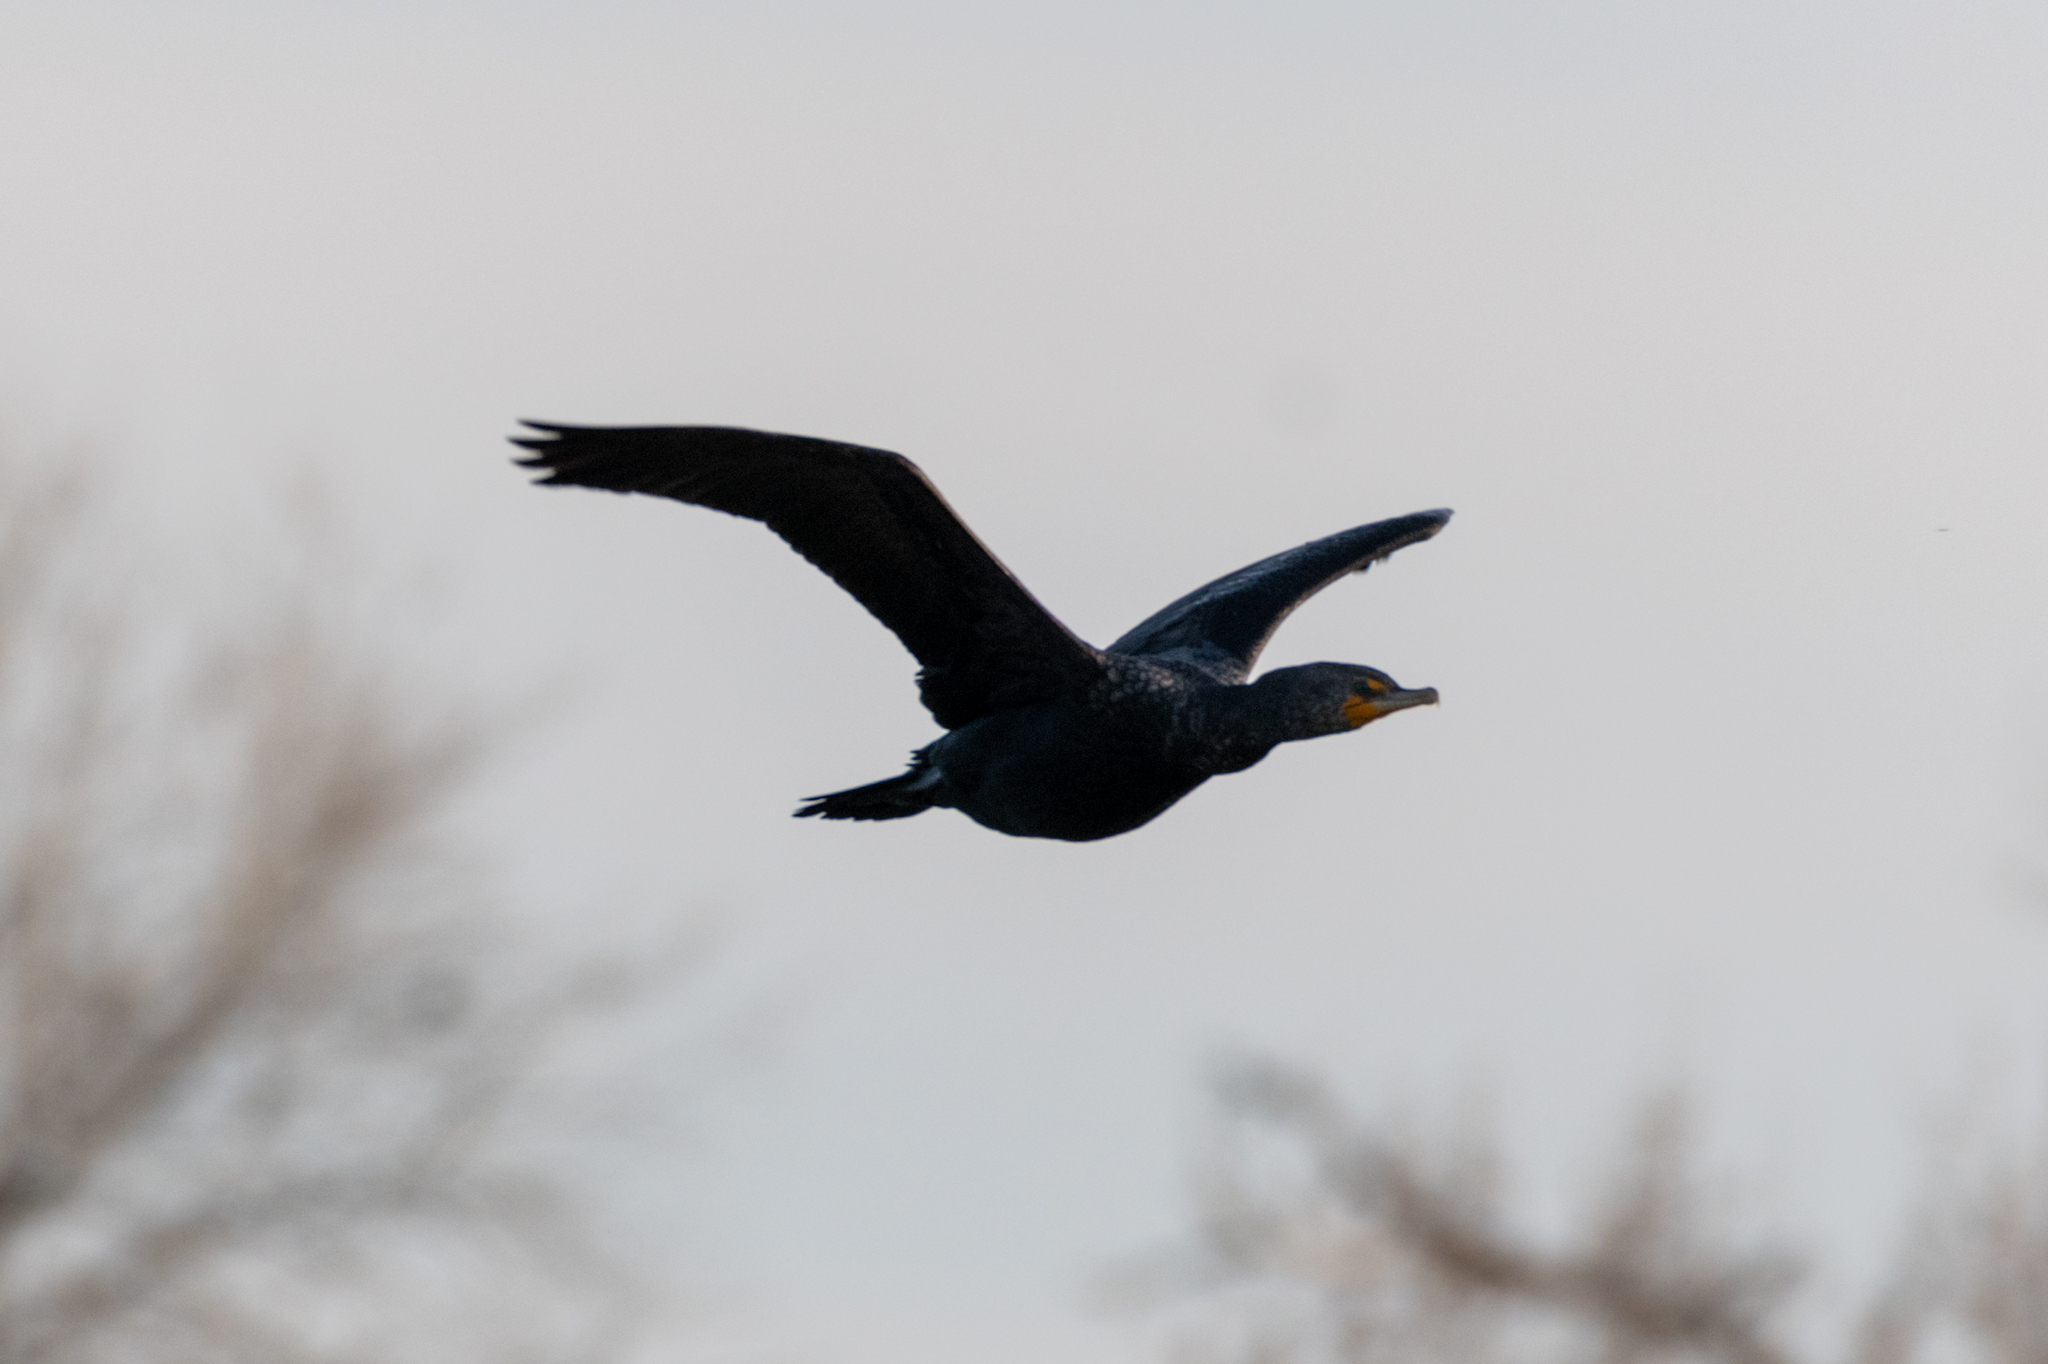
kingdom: Animalia
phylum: Chordata
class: Aves
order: Suliformes
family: Phalacrocoracidae
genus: Phalacrocorax
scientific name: Phalacrocorax auritus
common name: Double-crested cormorant
